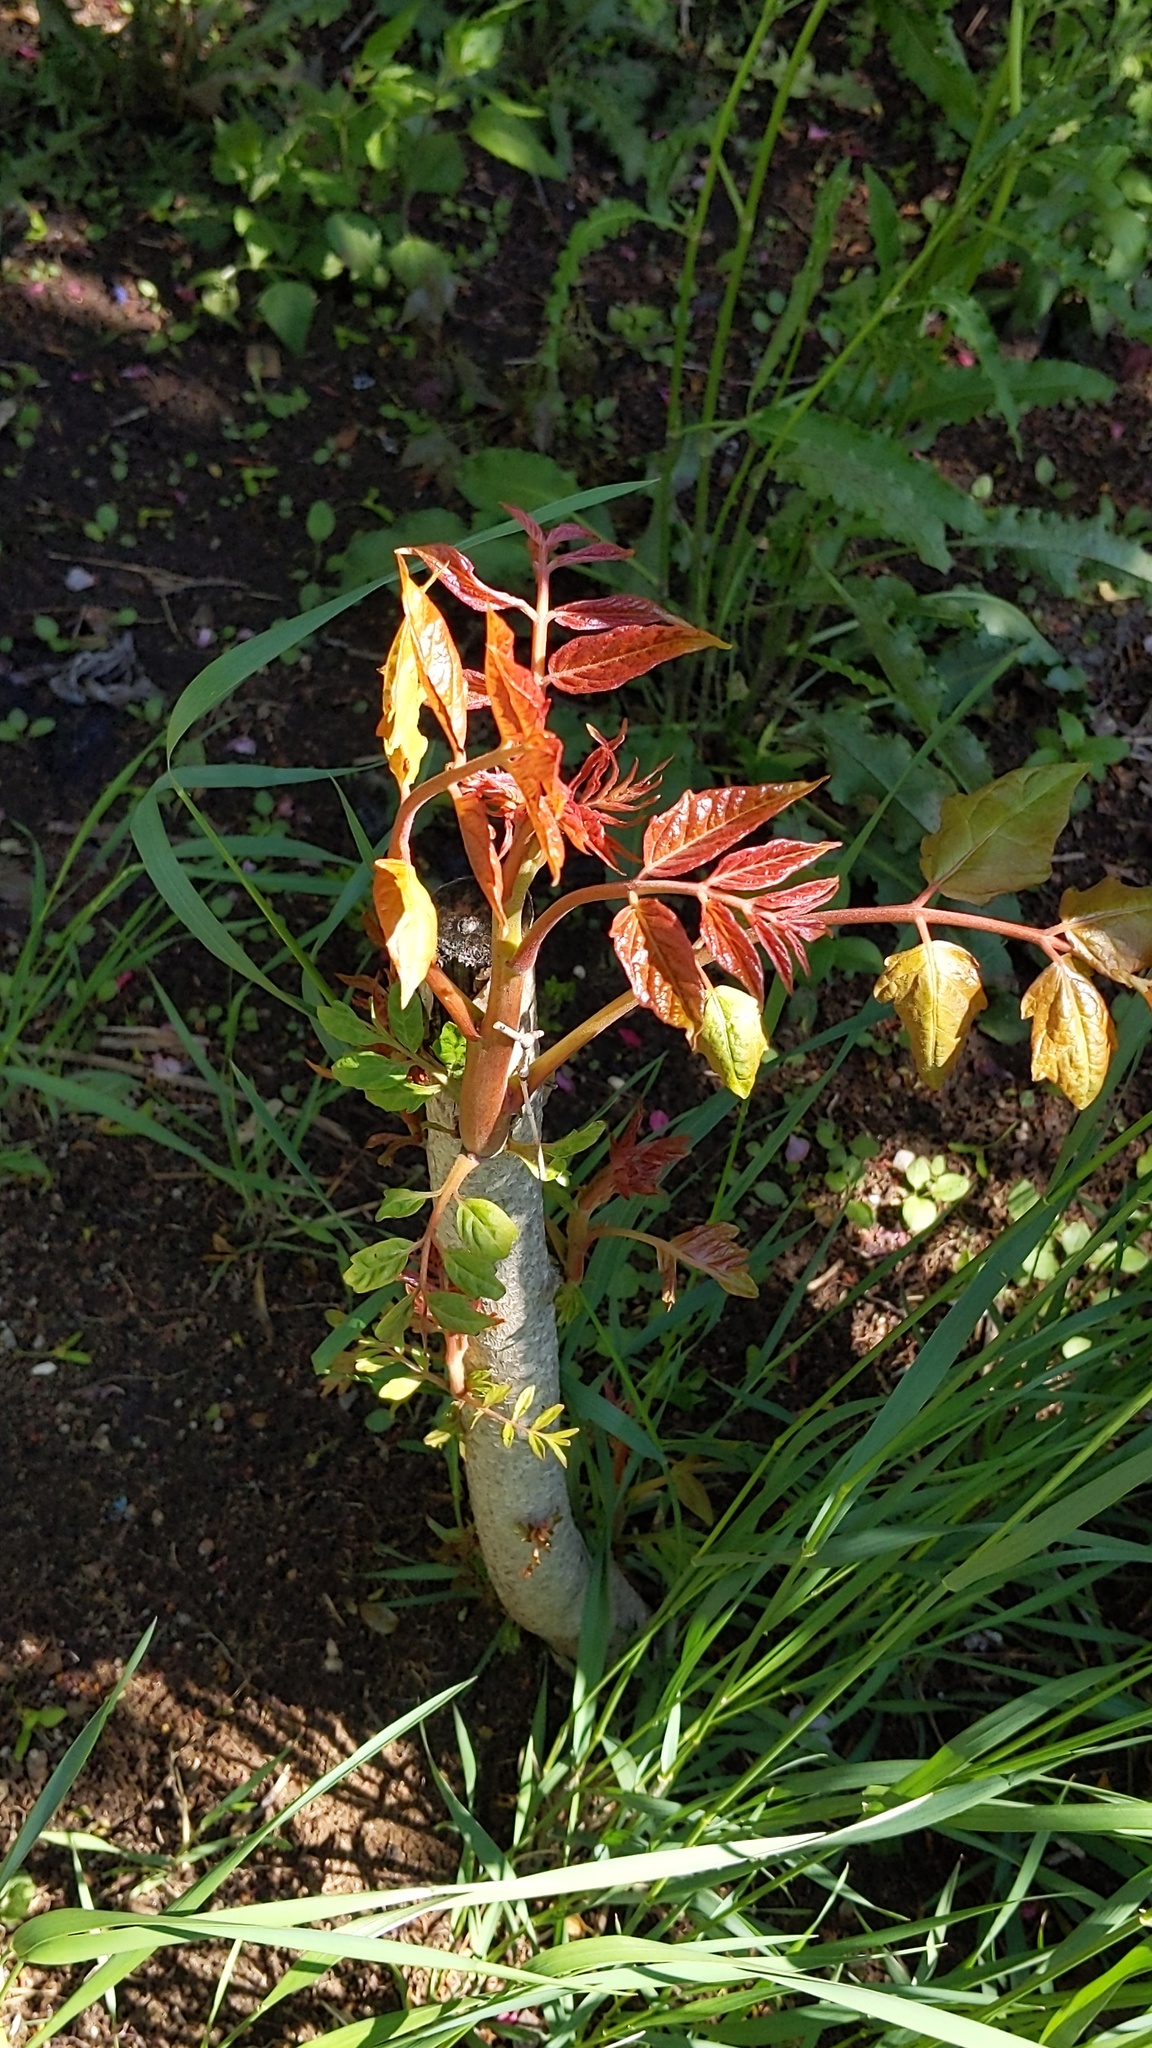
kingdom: Plantae
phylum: Tracheophyta
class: Magnoliopsida
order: Sapindales
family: Simaroubaceae
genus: Ailanthus
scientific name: Ailanthus altissima
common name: Tree-of-heaven
